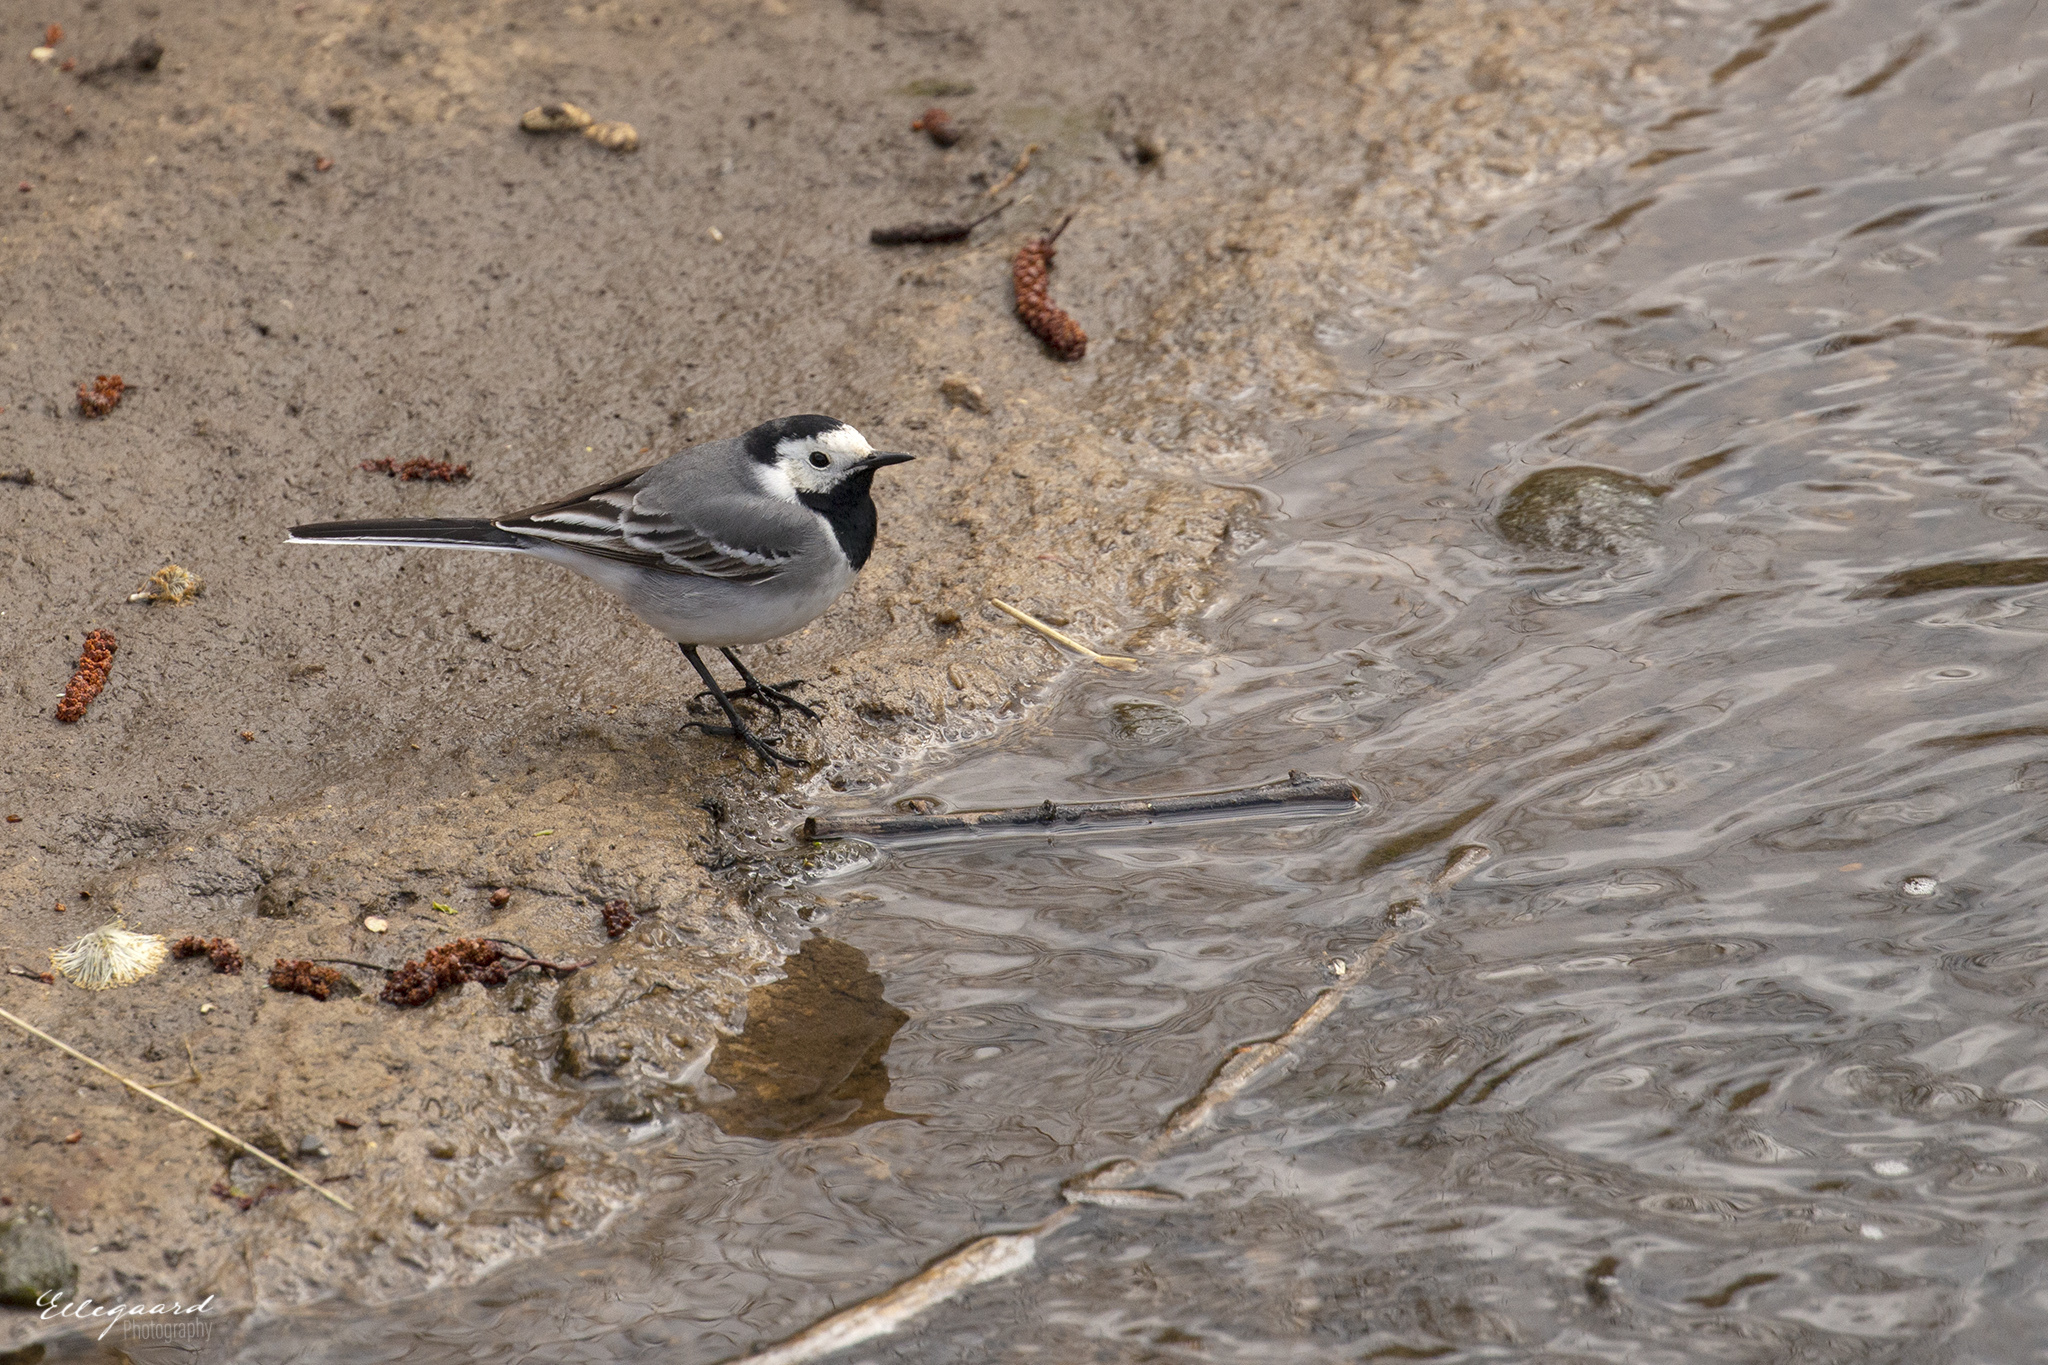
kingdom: Animalia
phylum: Chordata
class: Aves
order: Passeriformes
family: Motacillidae
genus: Motacilla
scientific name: Motacilla alba
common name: White wagtail
